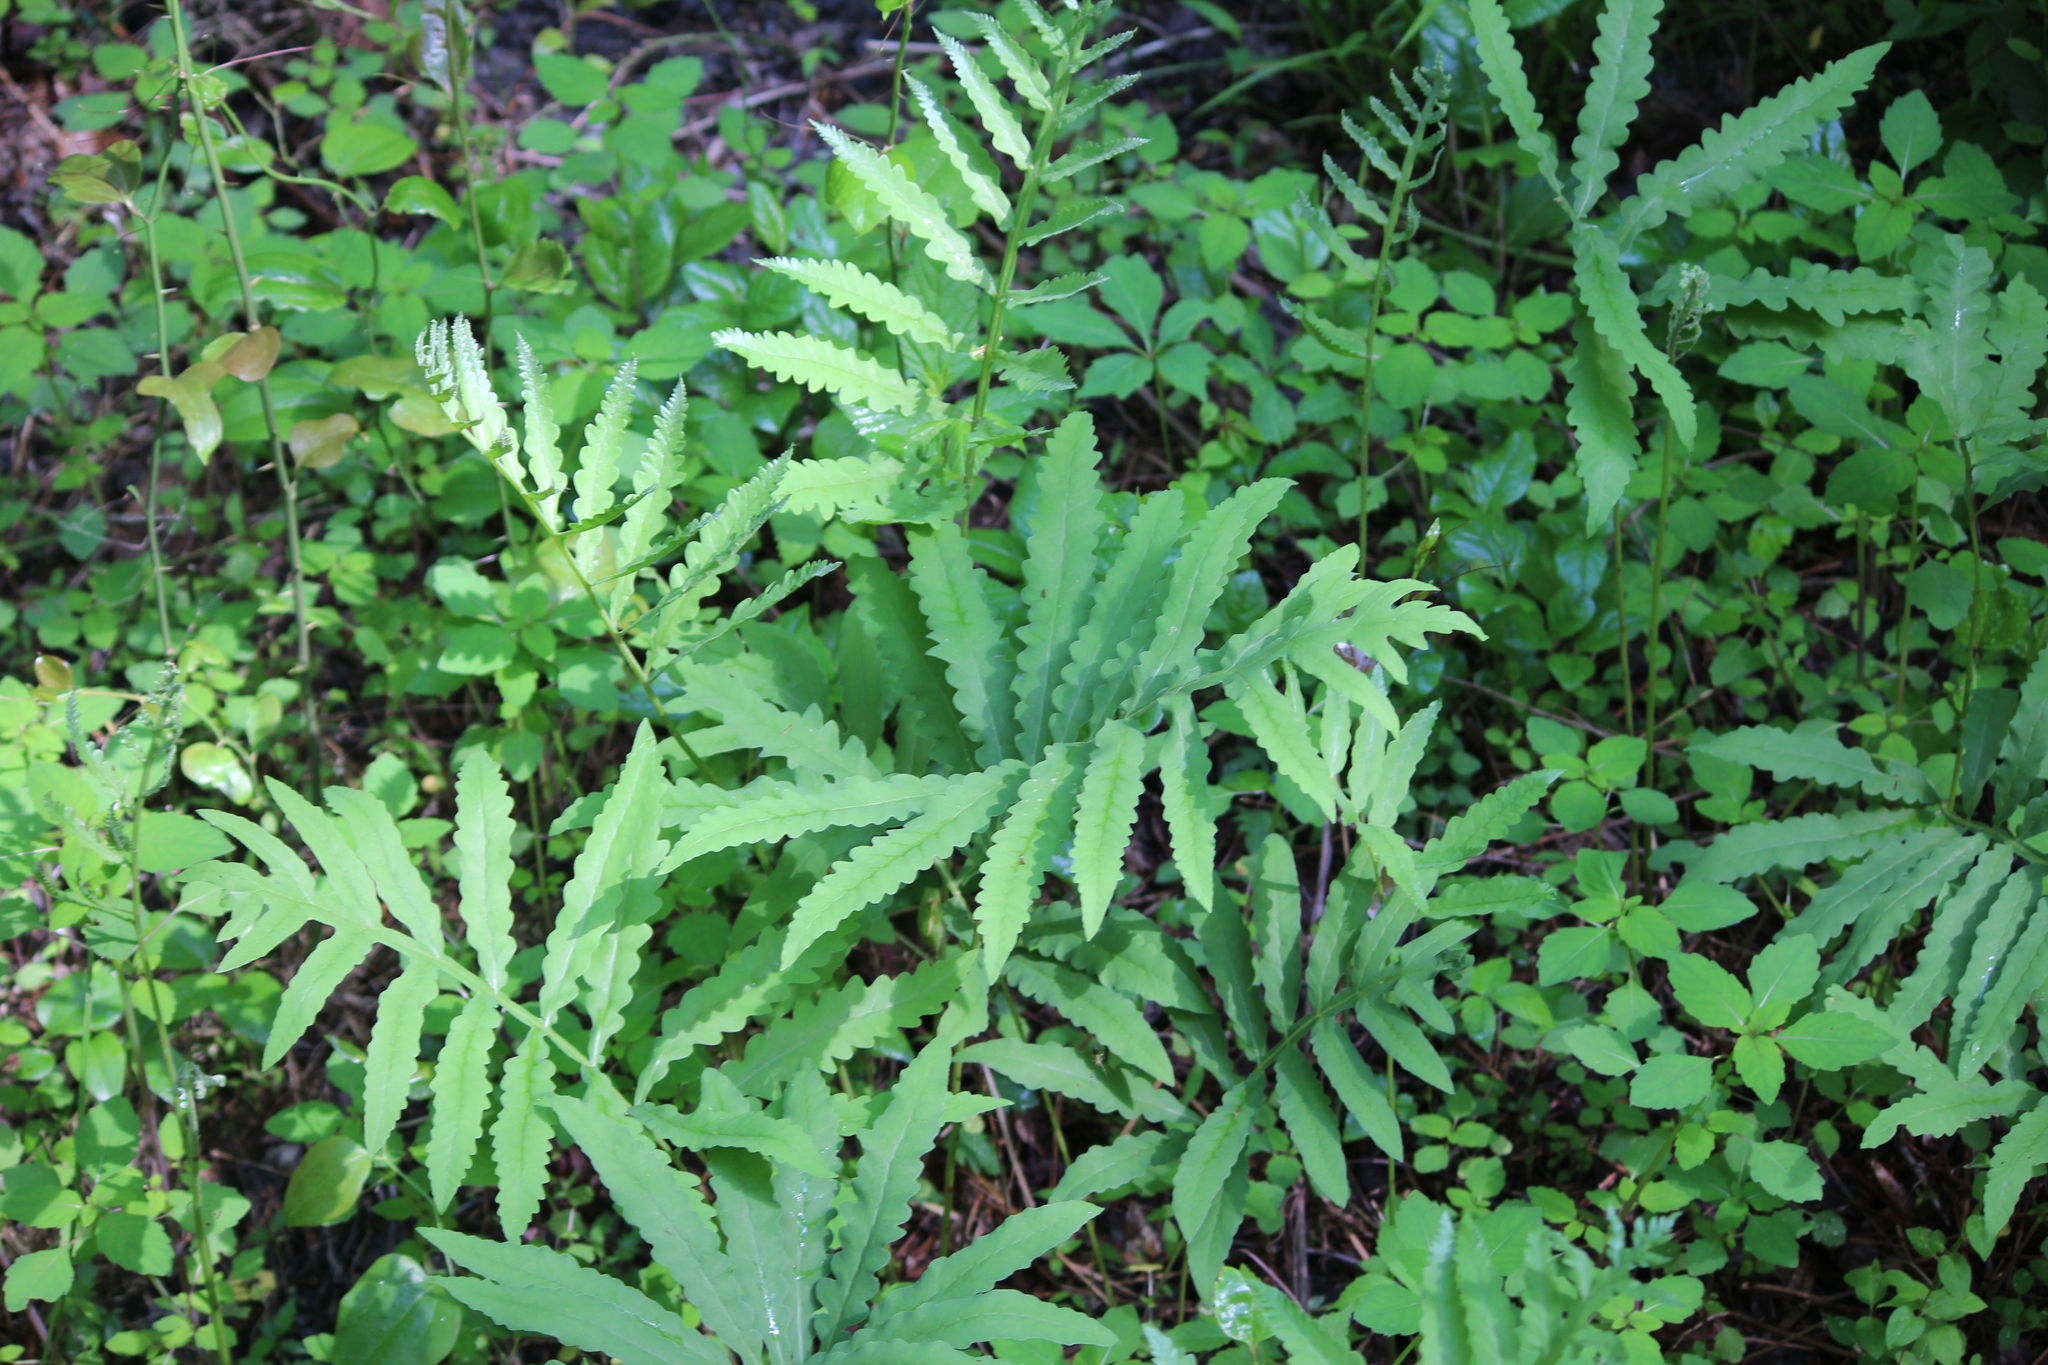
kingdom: Plantae
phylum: Tracheophyta
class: Polypodiopsida
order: Polypodiales
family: Onocleaceae
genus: Onoclea
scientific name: Onoclea sensibilis
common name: Sensitive fern
